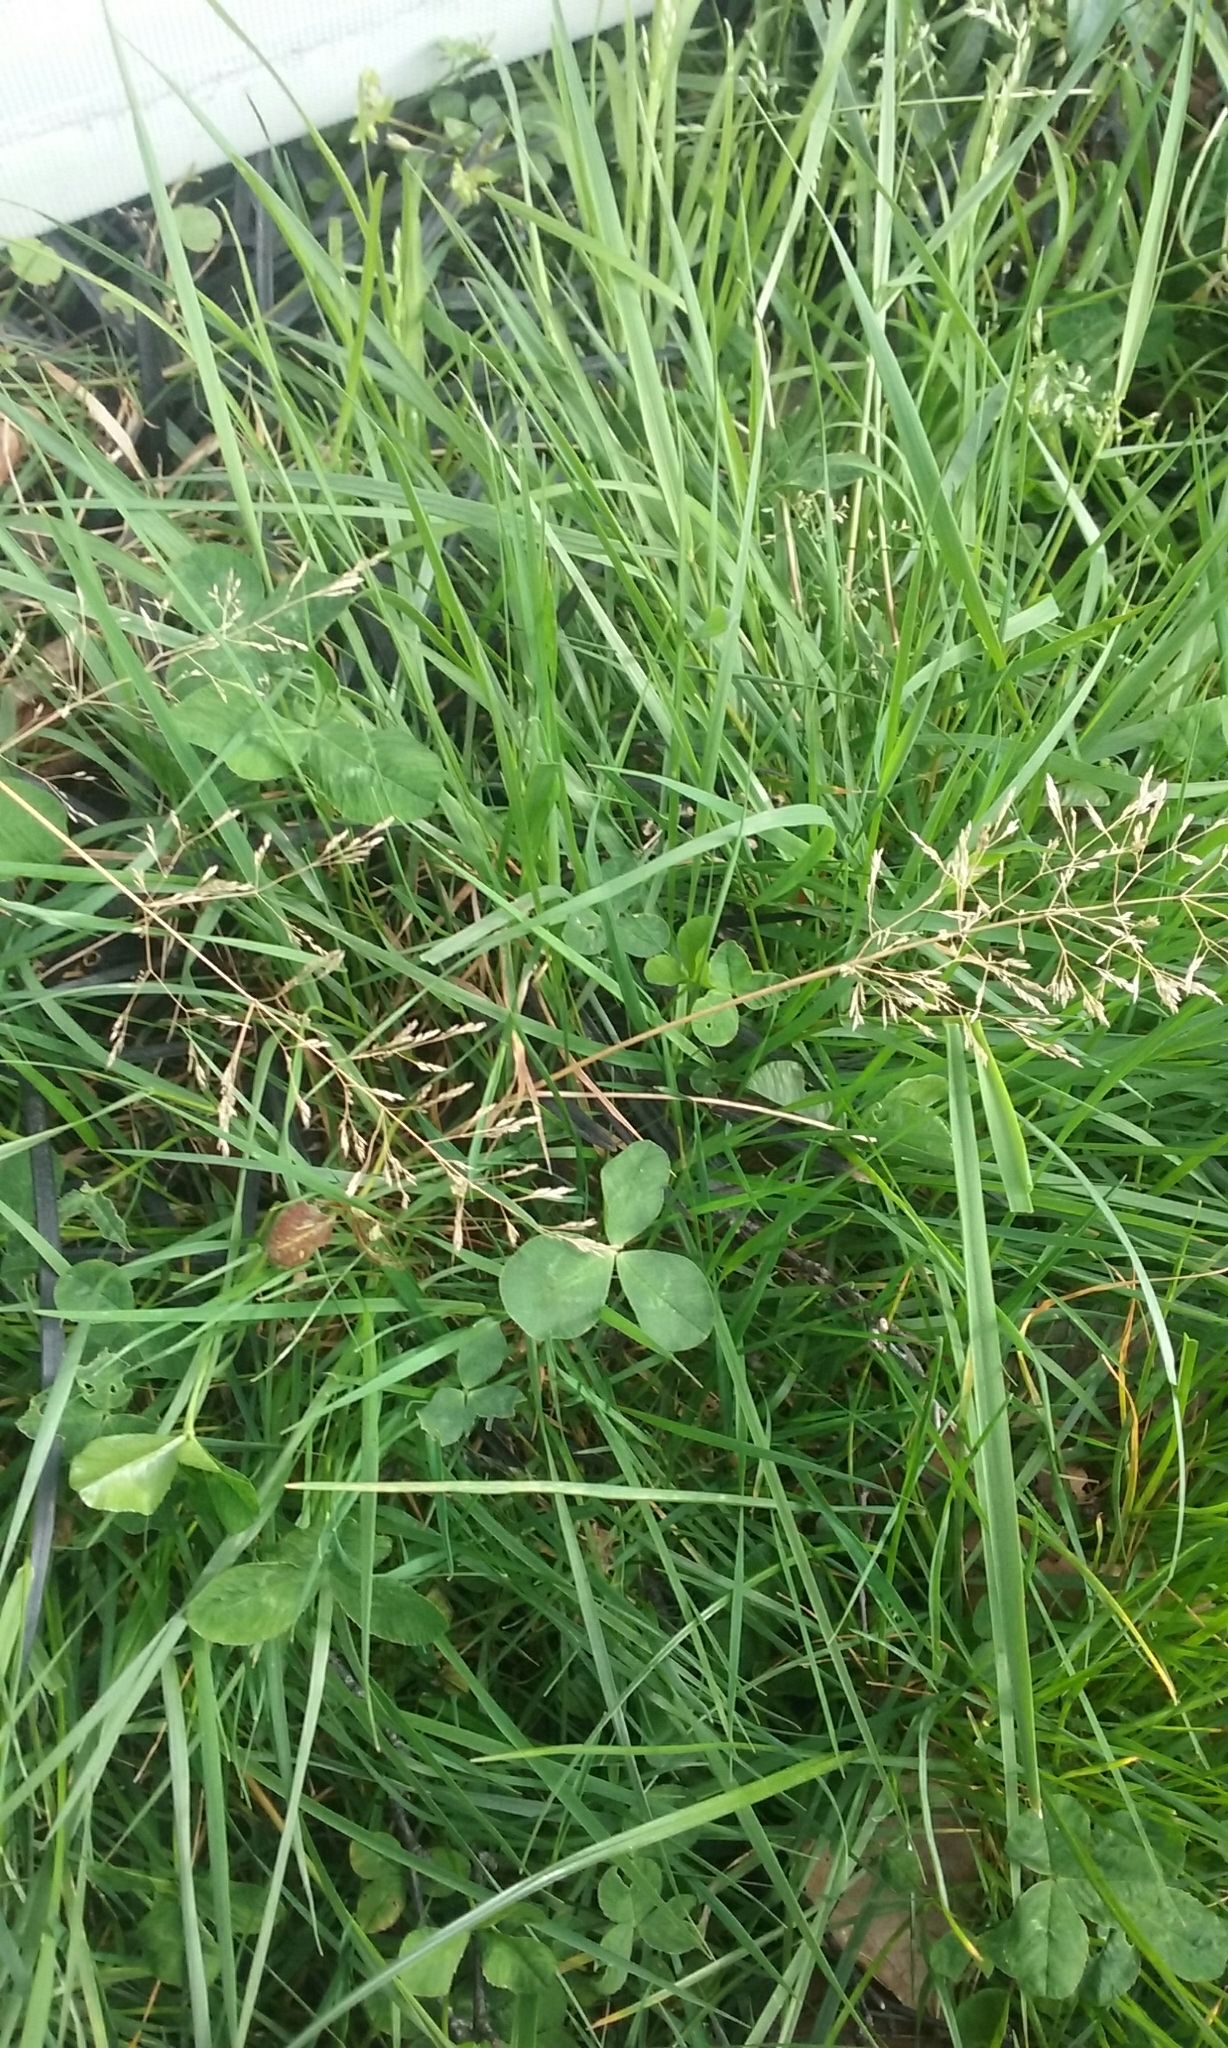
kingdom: Plantae
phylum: Tracheophyta
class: Liliopsida
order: Poales
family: Poaceae
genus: Agrostis
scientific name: Agrostis capillaris
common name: Colonial bentgrass
